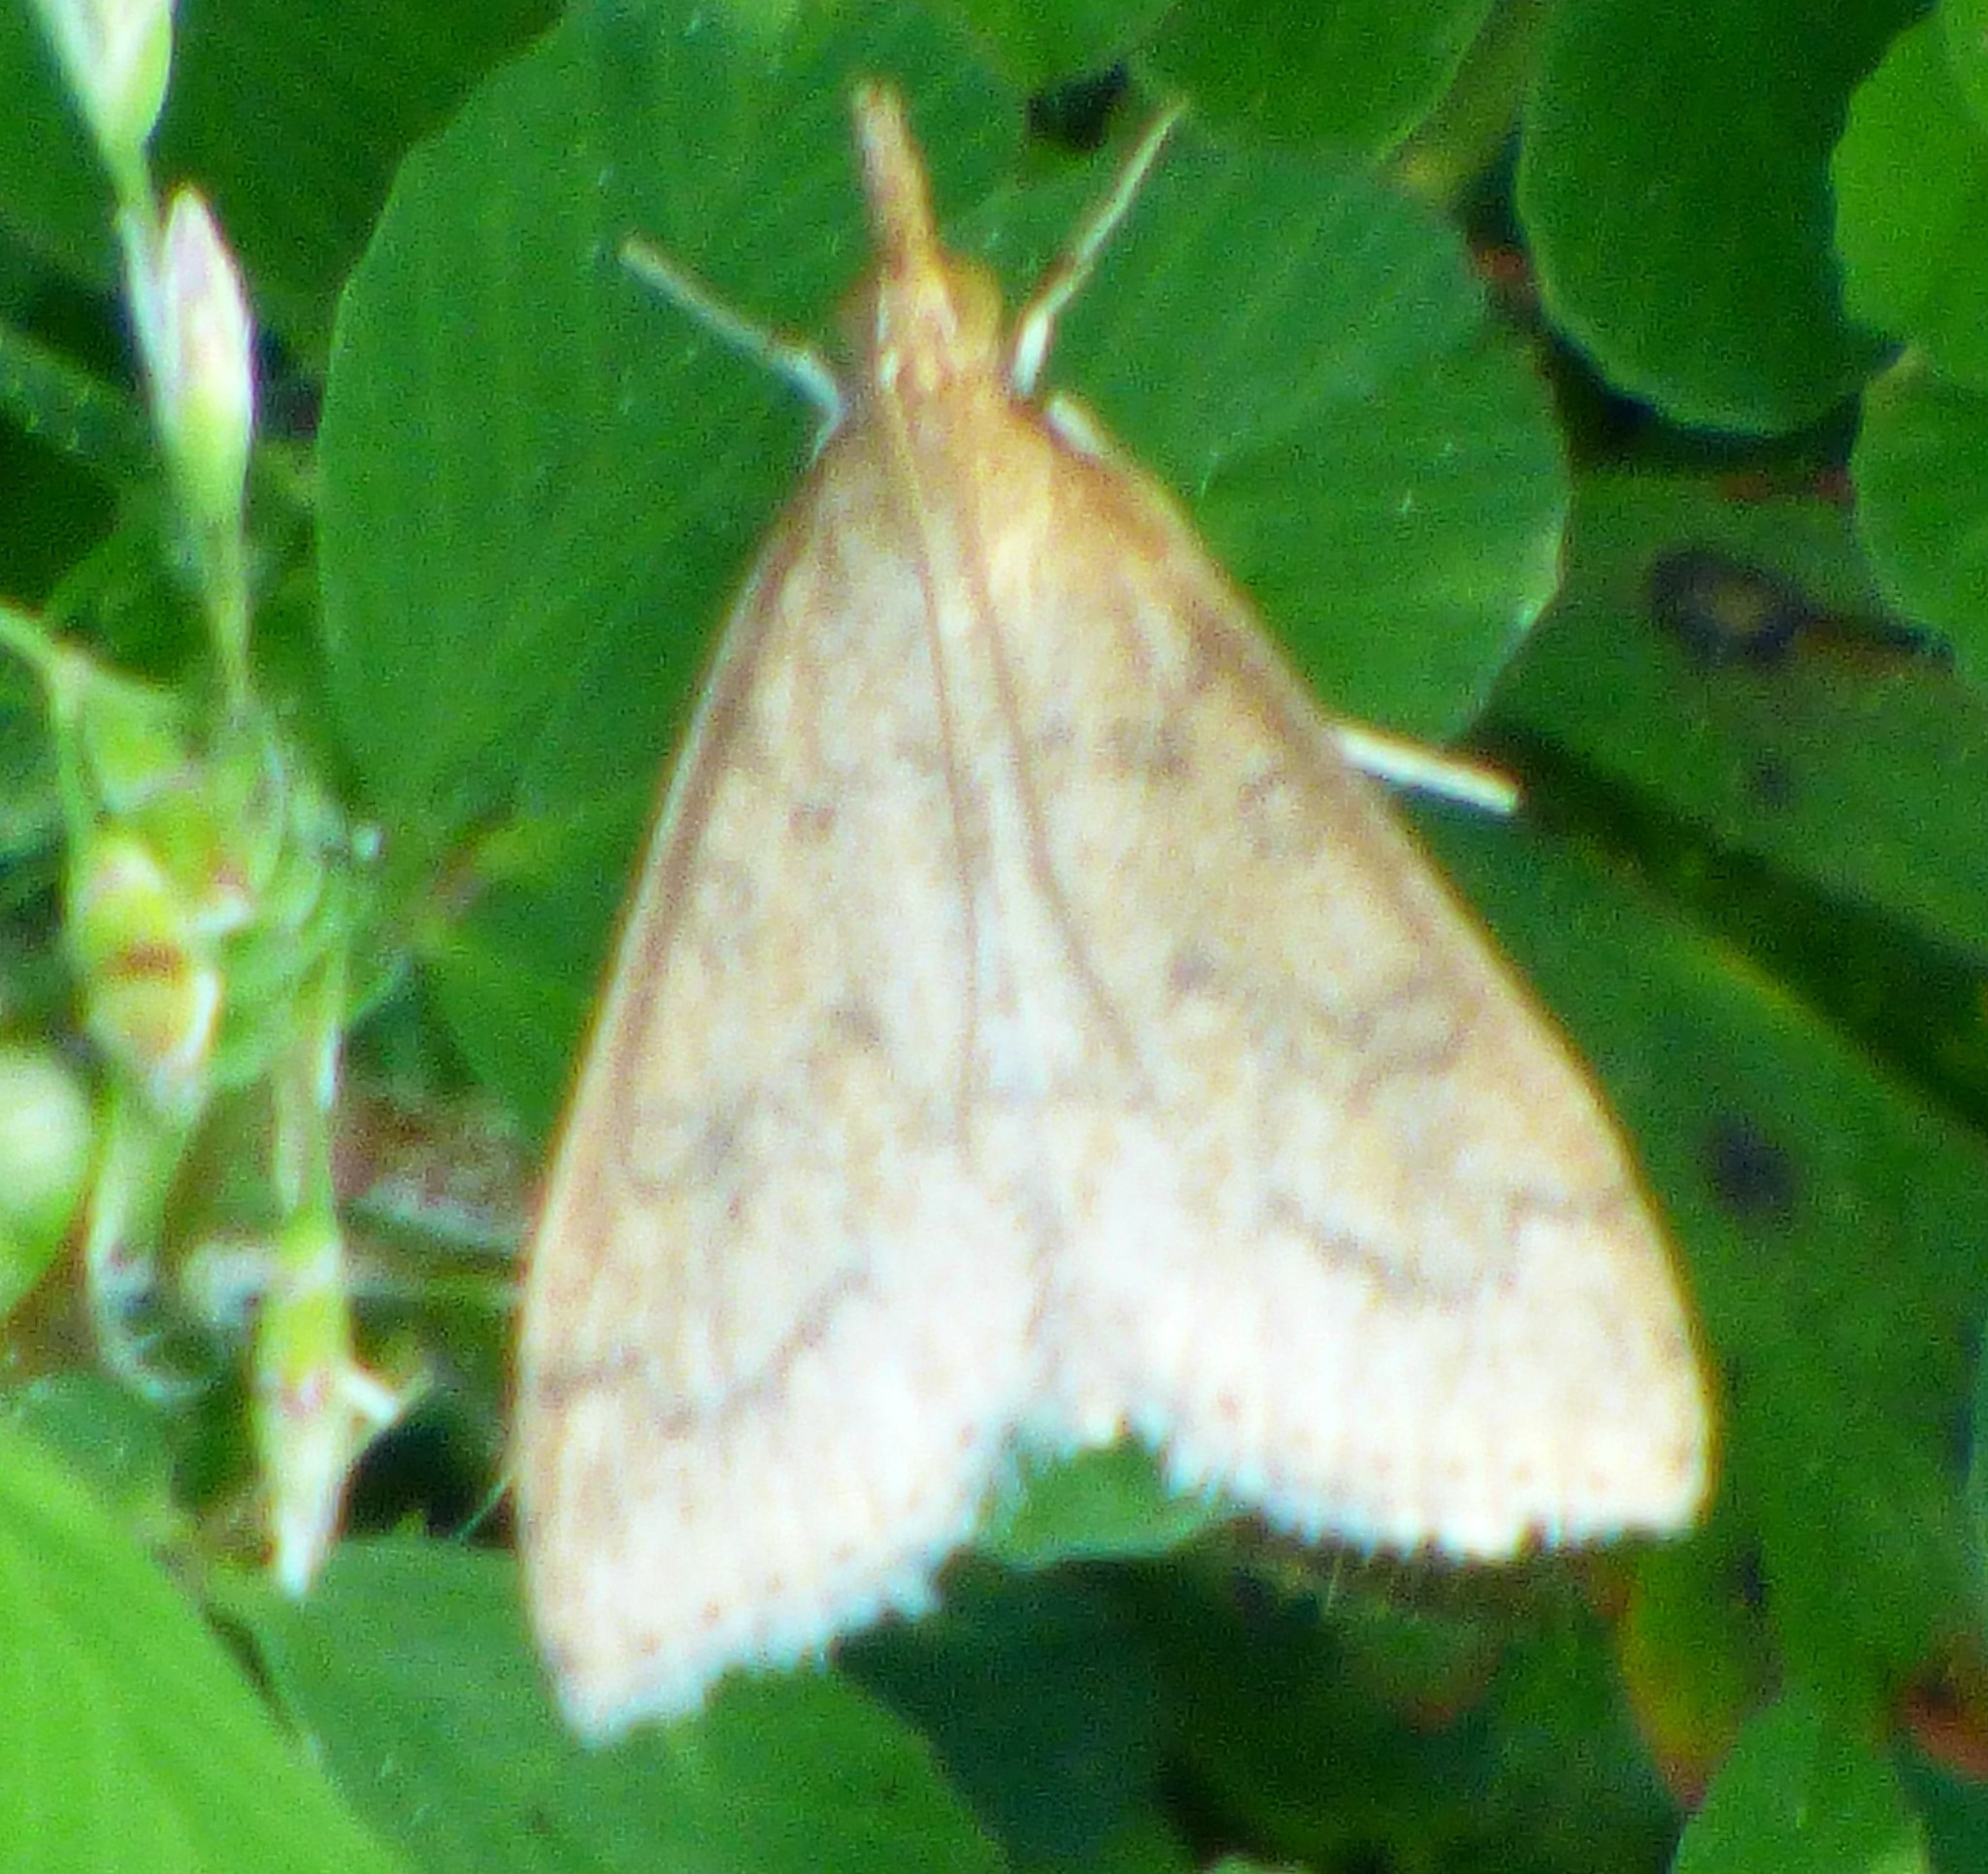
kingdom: Animalia
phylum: Arthropoda
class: Insecta
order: Lepidoptera
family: Crambidae
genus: Udea
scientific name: Udea rubigalis
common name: Celery leaftier moth
